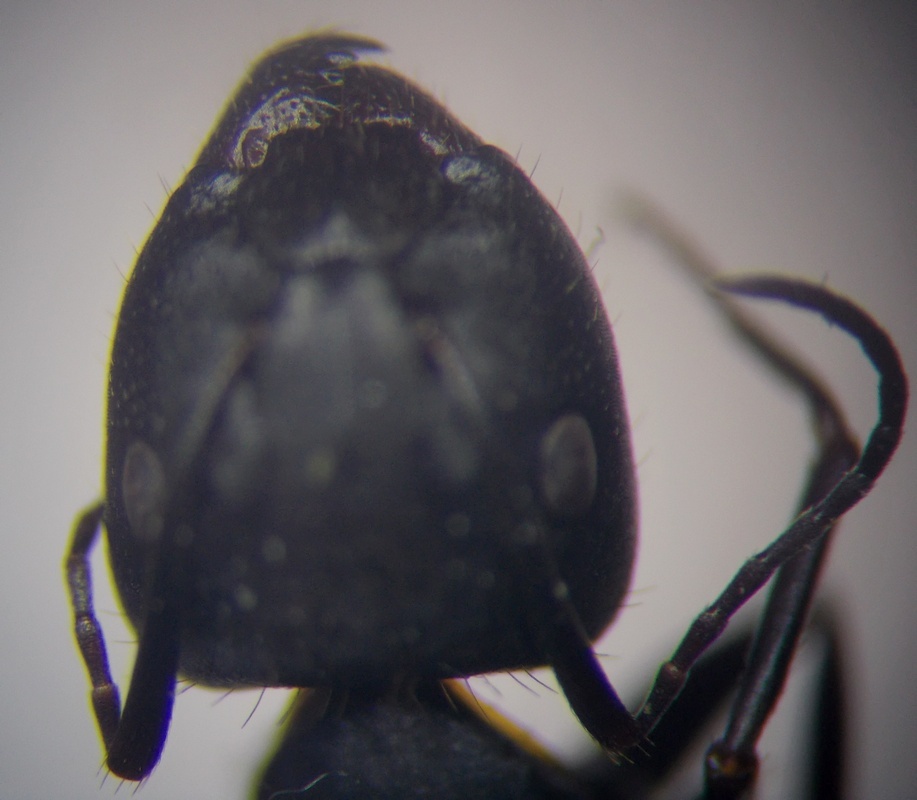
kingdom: Animalia
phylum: Arthropoda
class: Insecta
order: Hymenoptera
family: Formicidae
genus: Camponotus
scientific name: Camponotus aethiops
